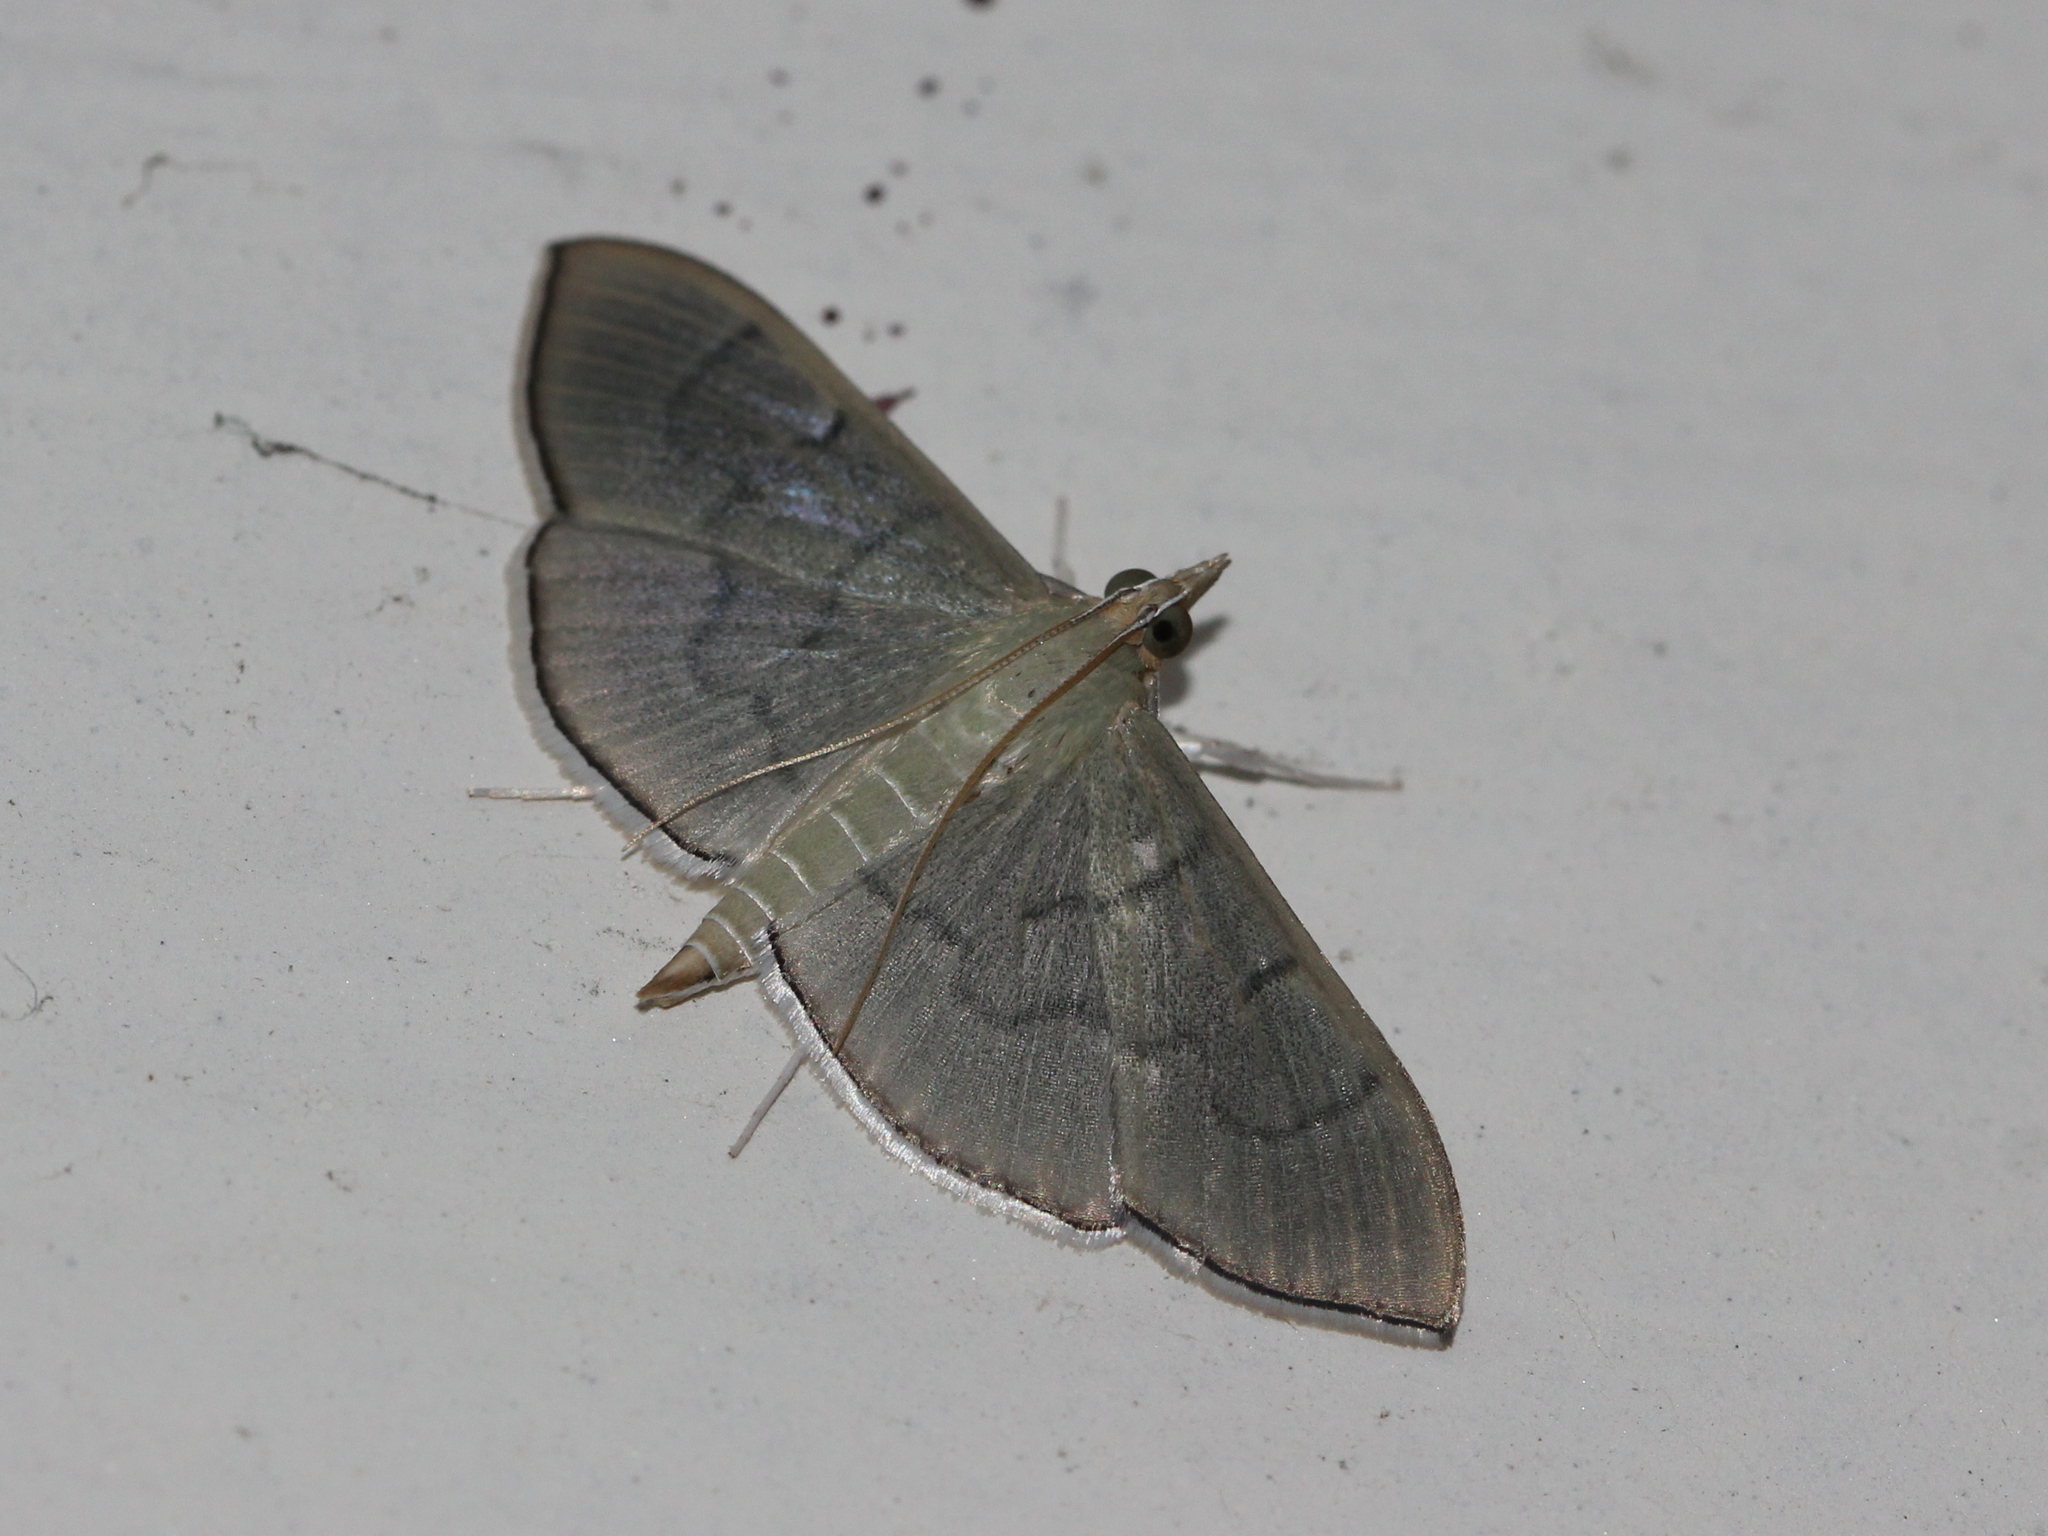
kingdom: Animalia
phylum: Arthropoda
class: Insecta
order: Lepidoptera
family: Crambidae
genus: Lamprophaia
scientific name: Lamprophaia ablactalis
